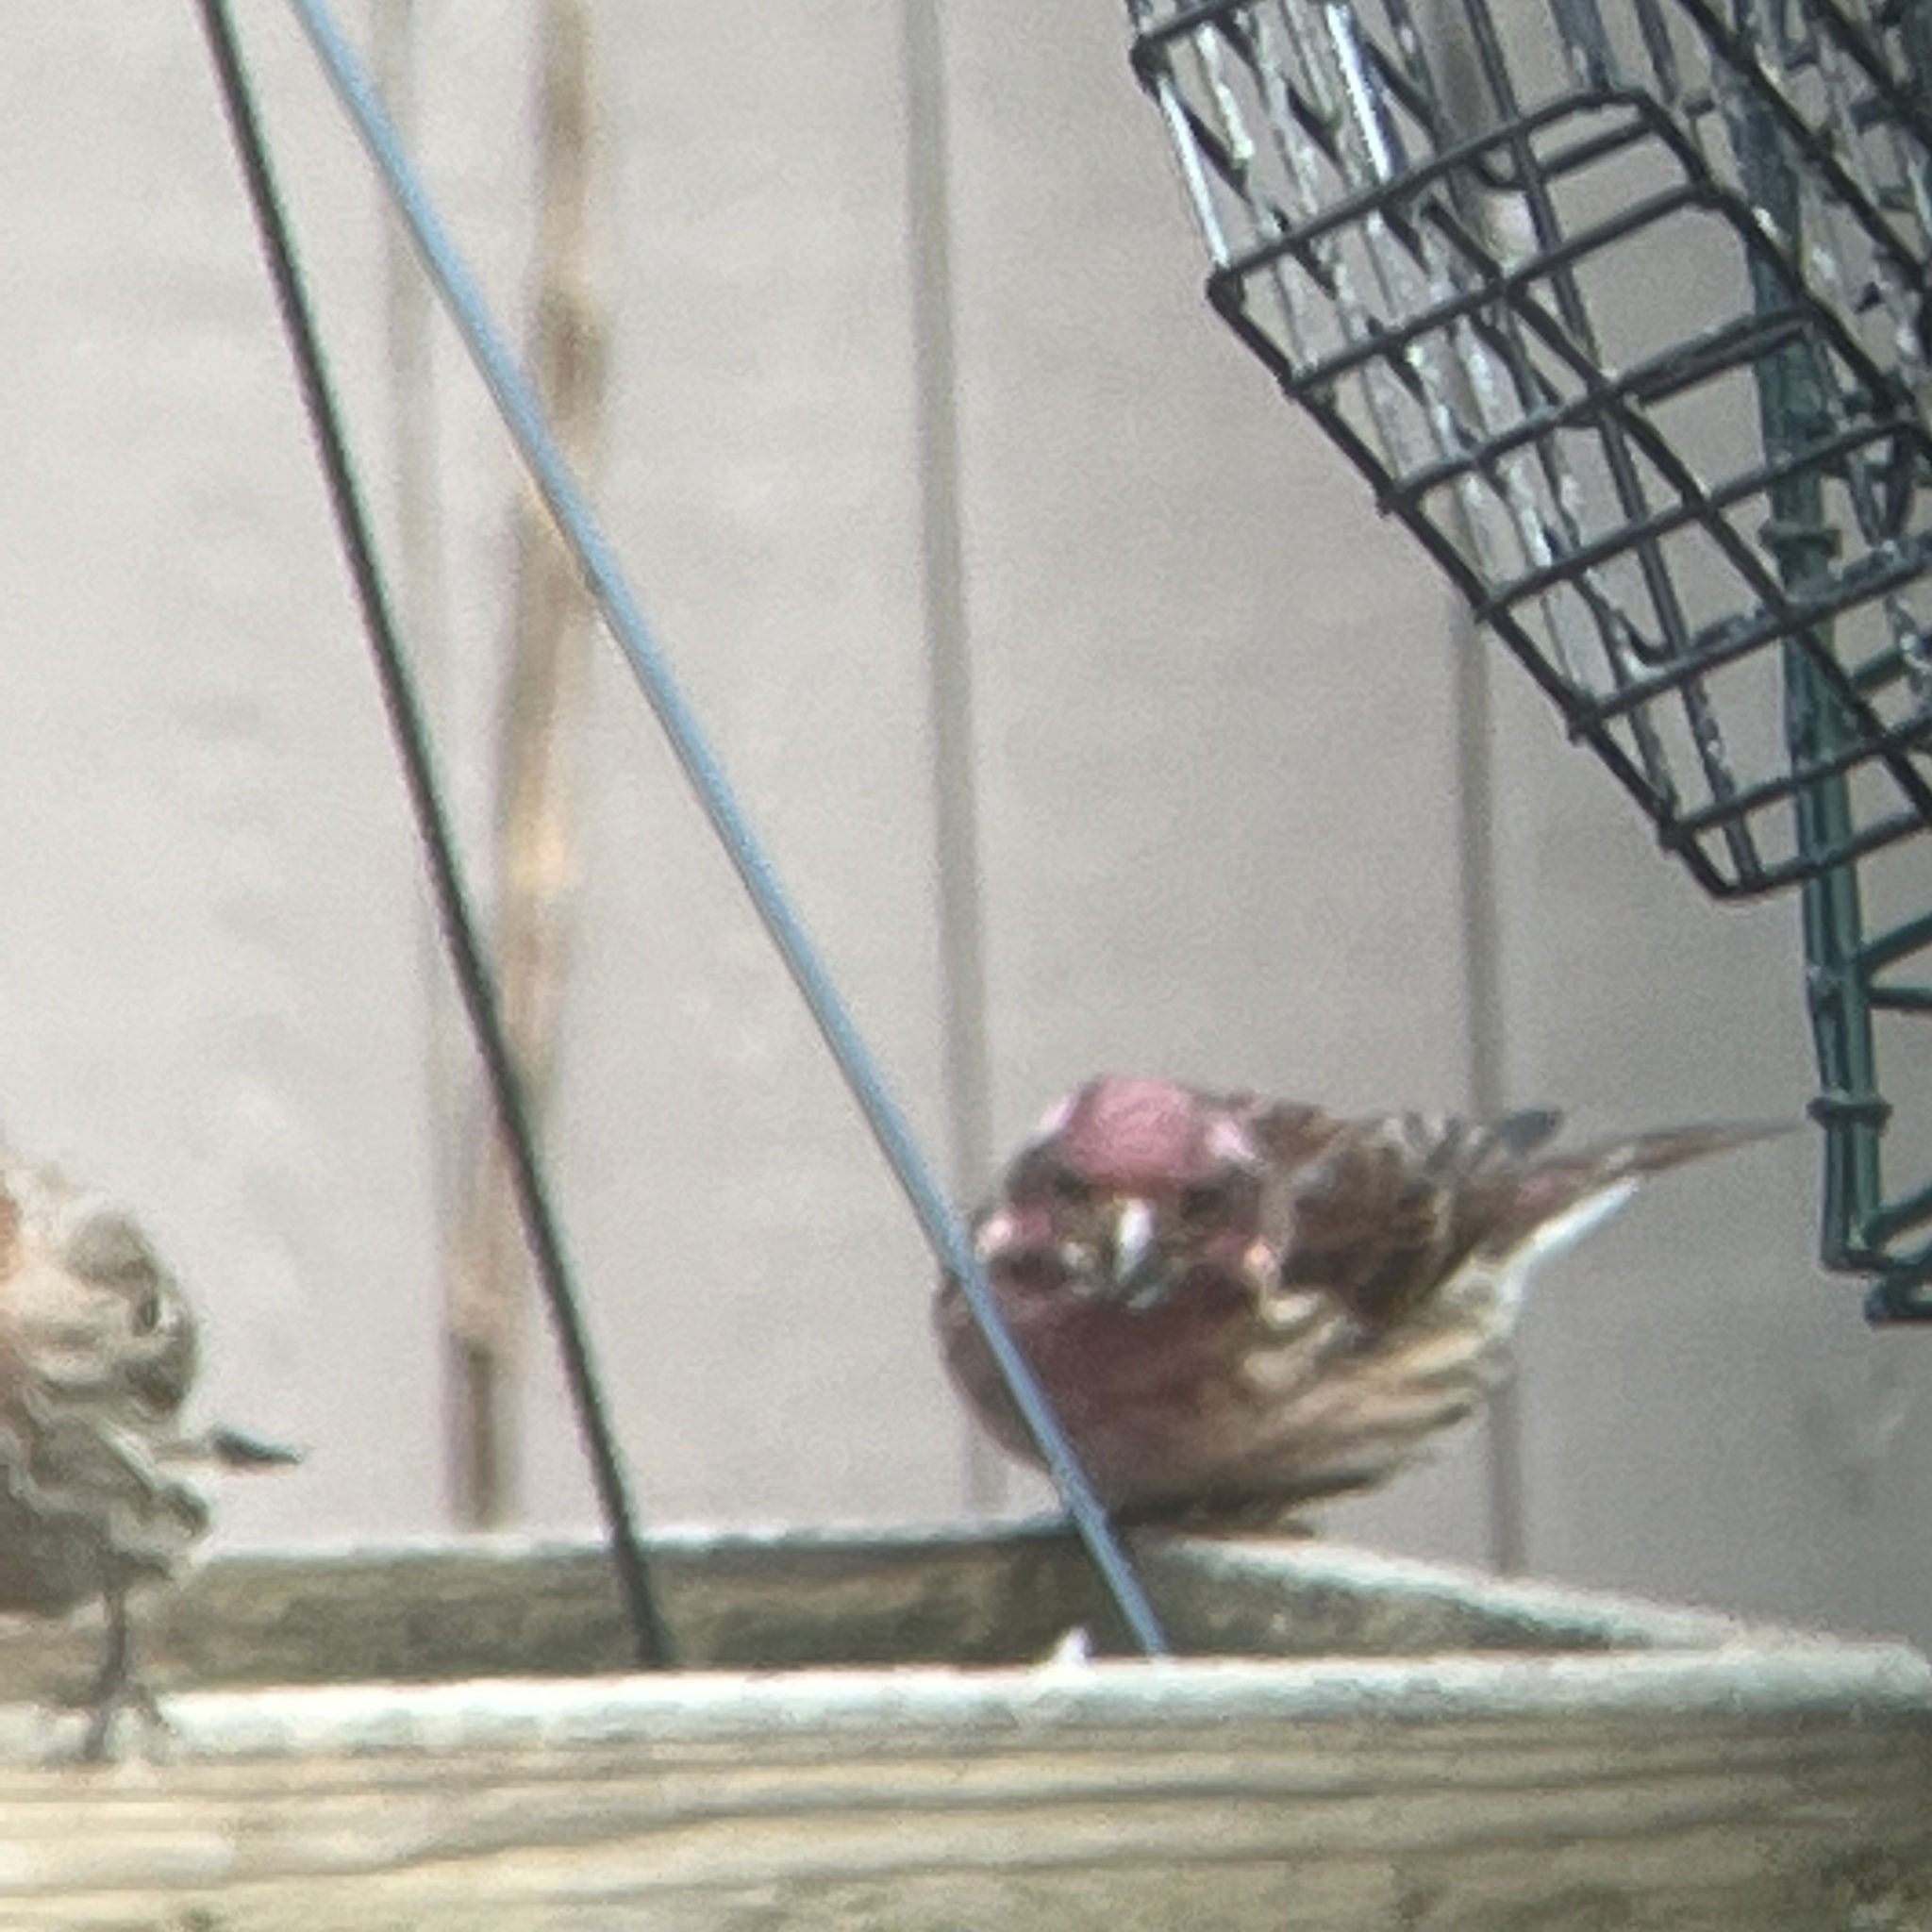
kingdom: Animalia
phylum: Chordata
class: Aves
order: Passeriformes
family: Fringillidae
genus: Haemorhous
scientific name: Haemorhous purpureus
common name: Purple finch
